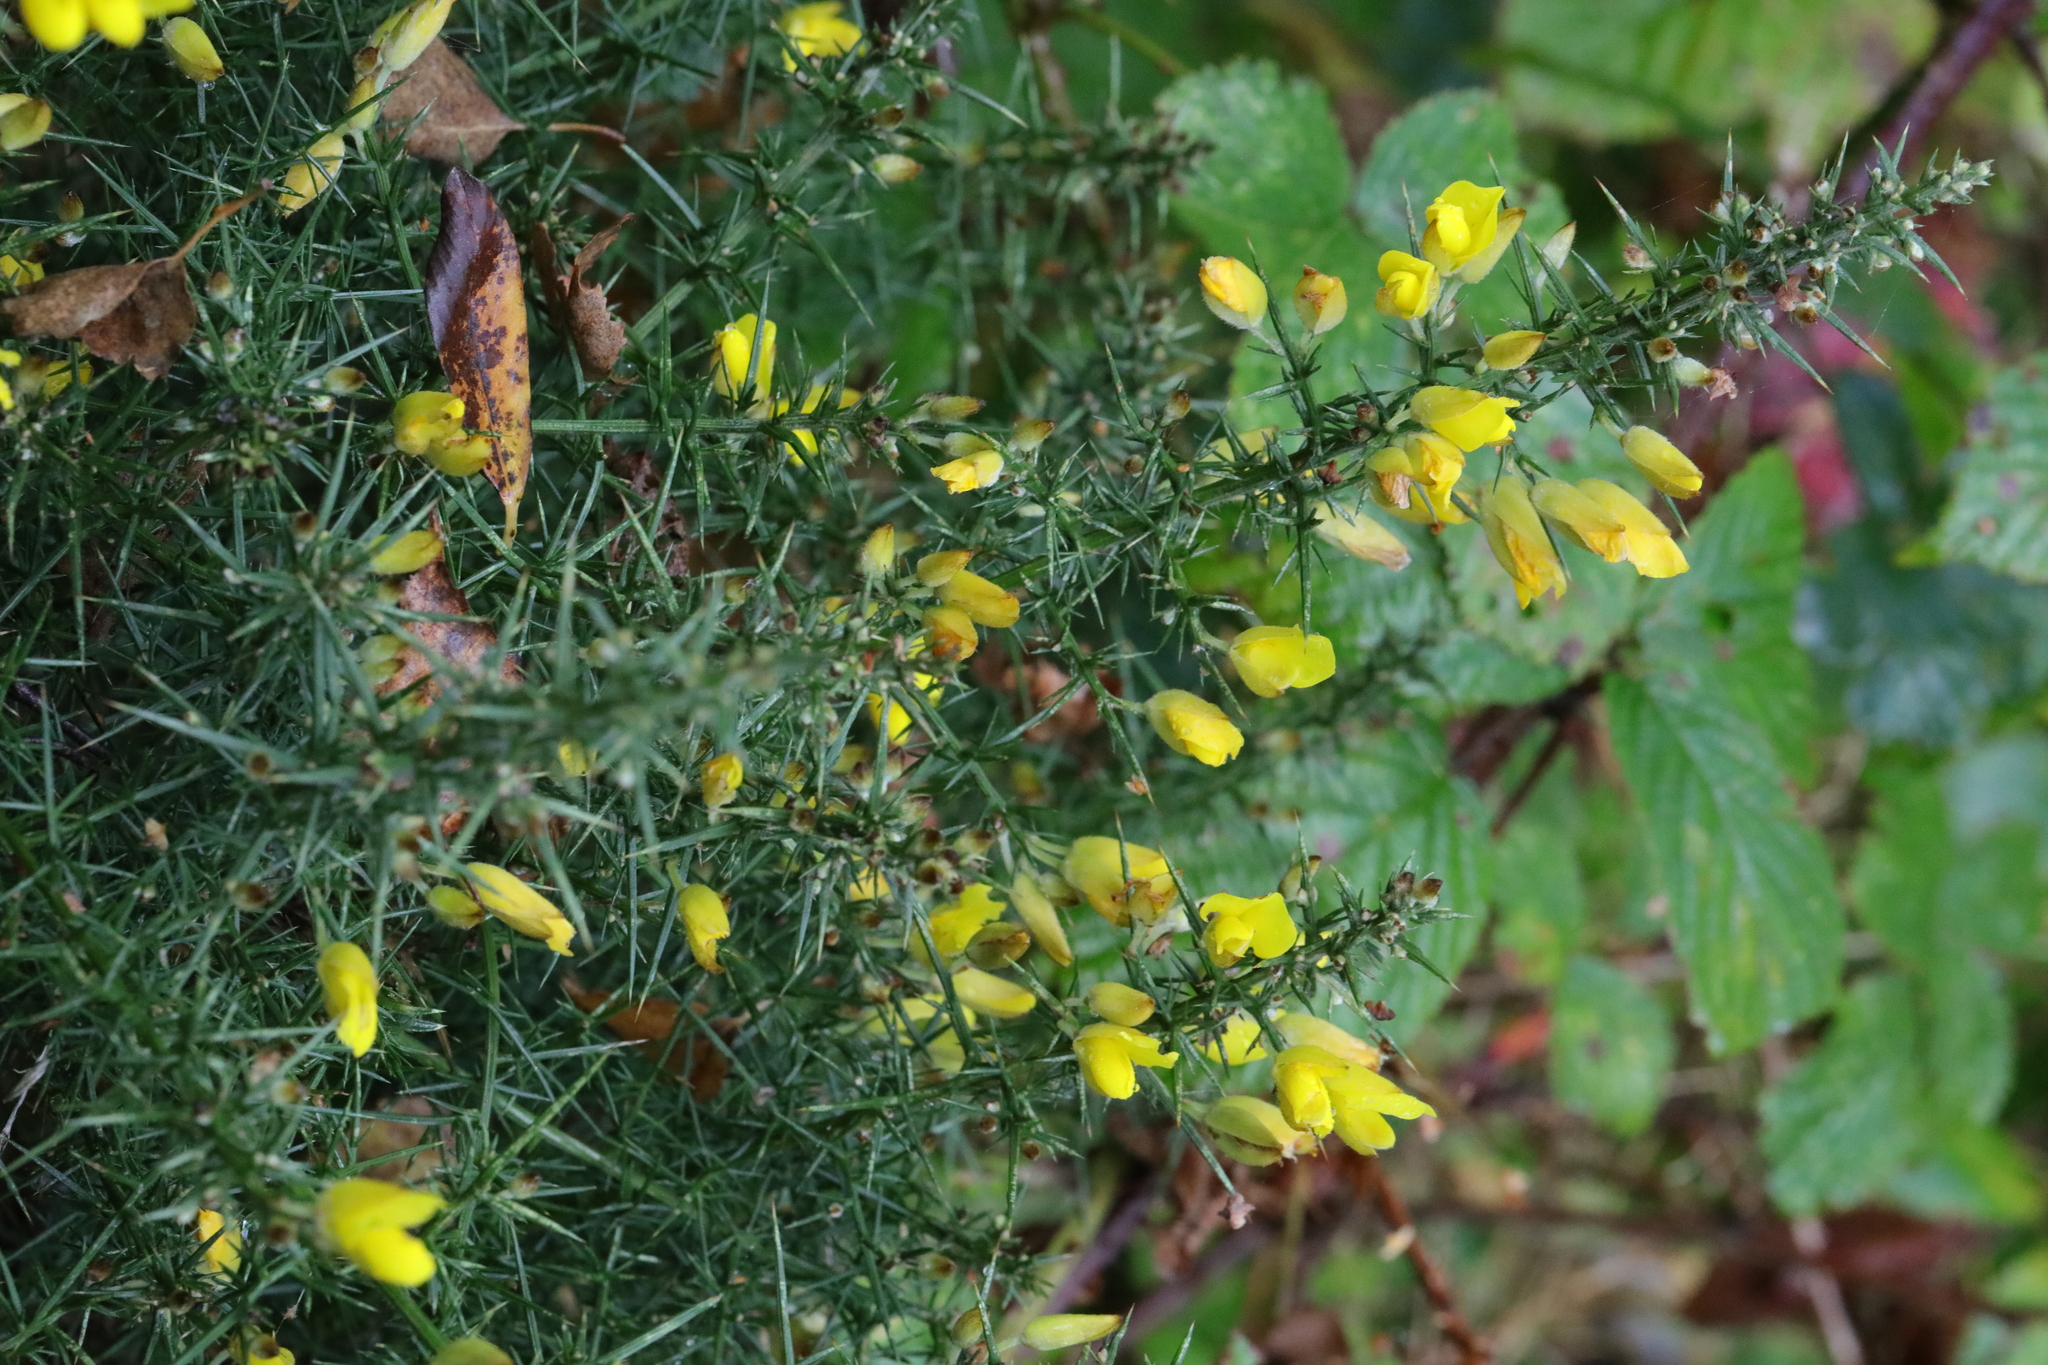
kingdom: Plantae
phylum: Tracheophyta
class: Magnoliopsida
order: Fabales
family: Fabaceae
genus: Ulex
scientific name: Ulex europaeus
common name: Common gorse
